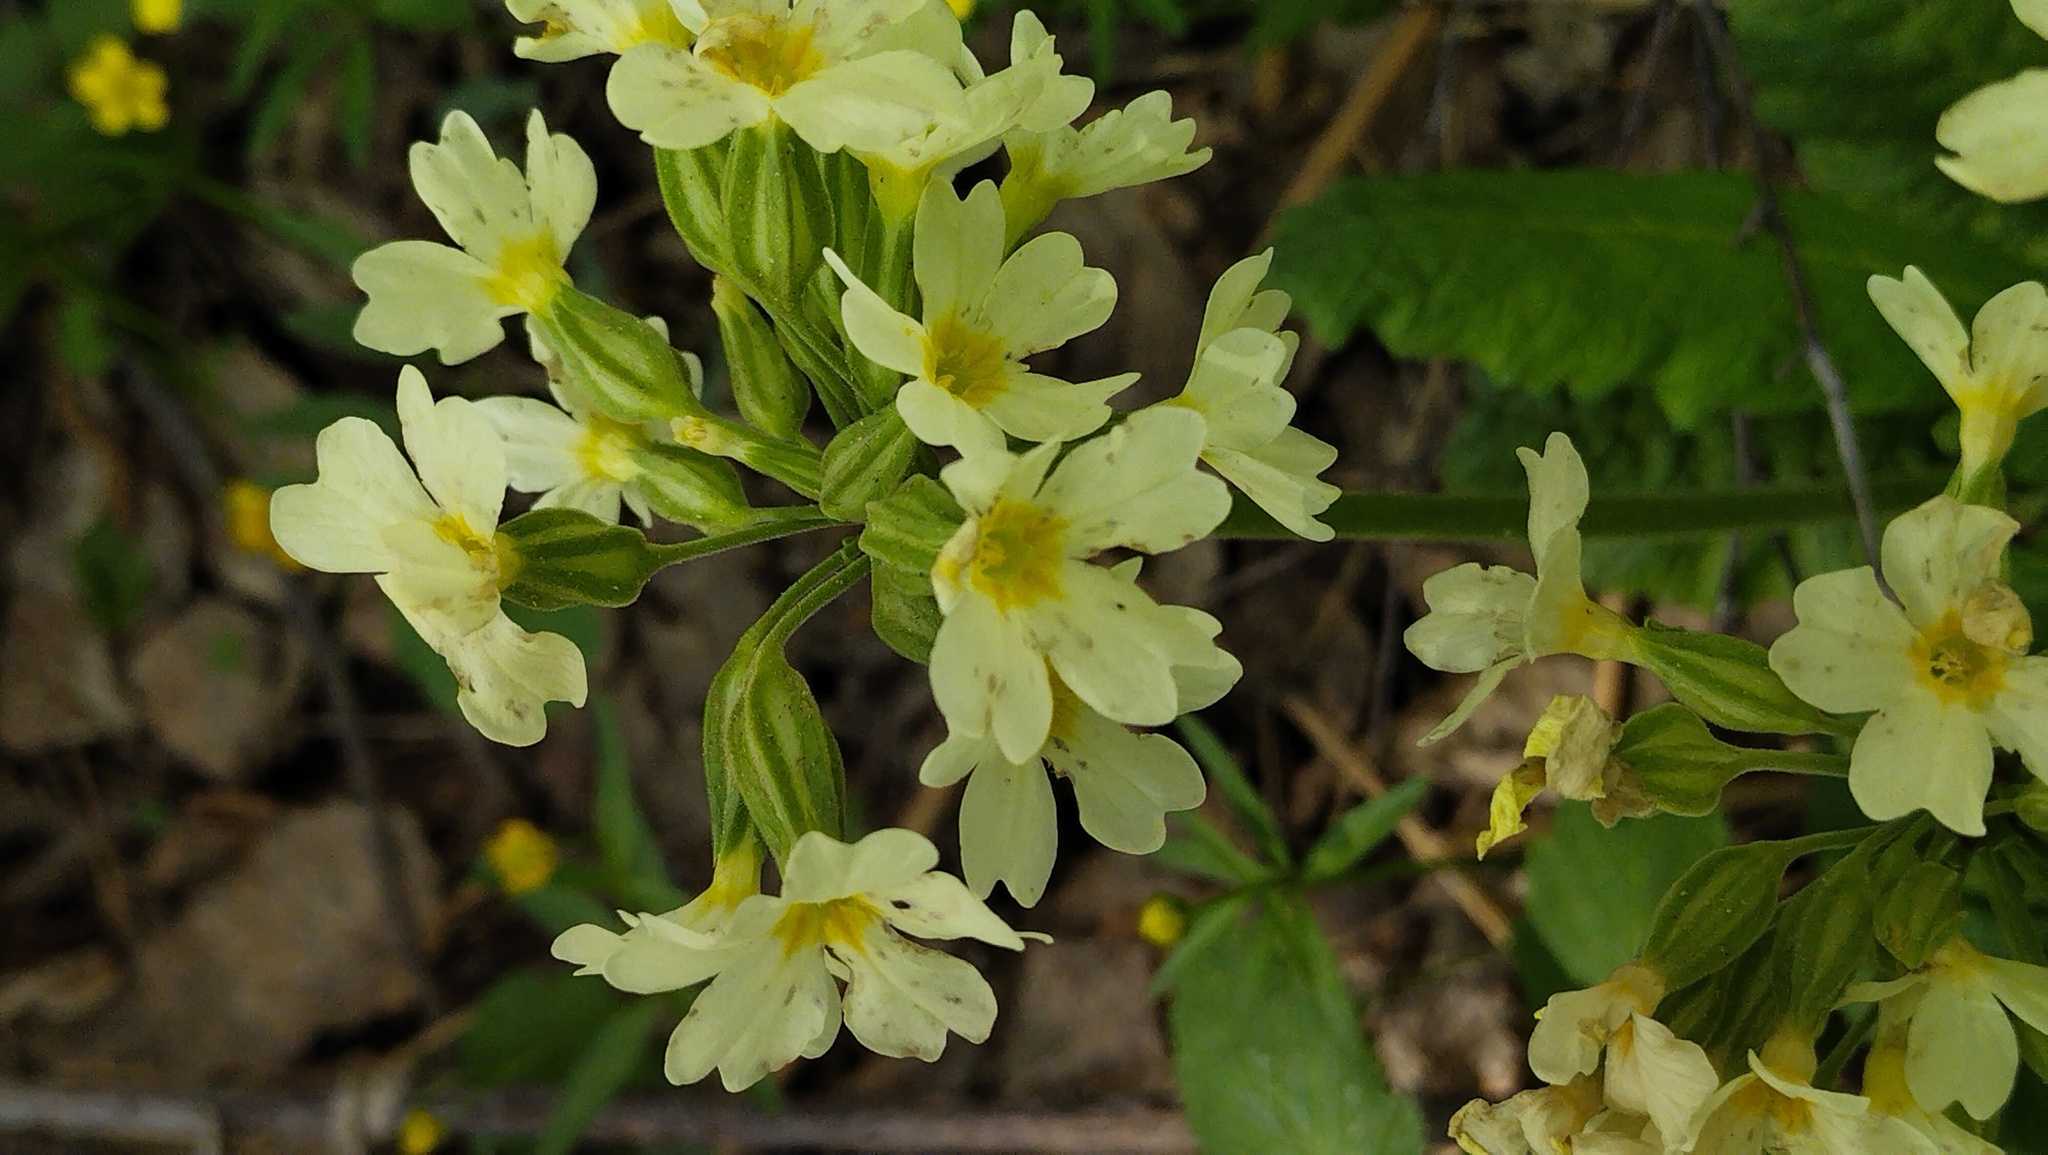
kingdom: Plantae
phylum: Tracheophyta
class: Magnoliopsida
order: Ericales
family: Primulaceae
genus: Primula
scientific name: Primula elatior
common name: Oxlip
